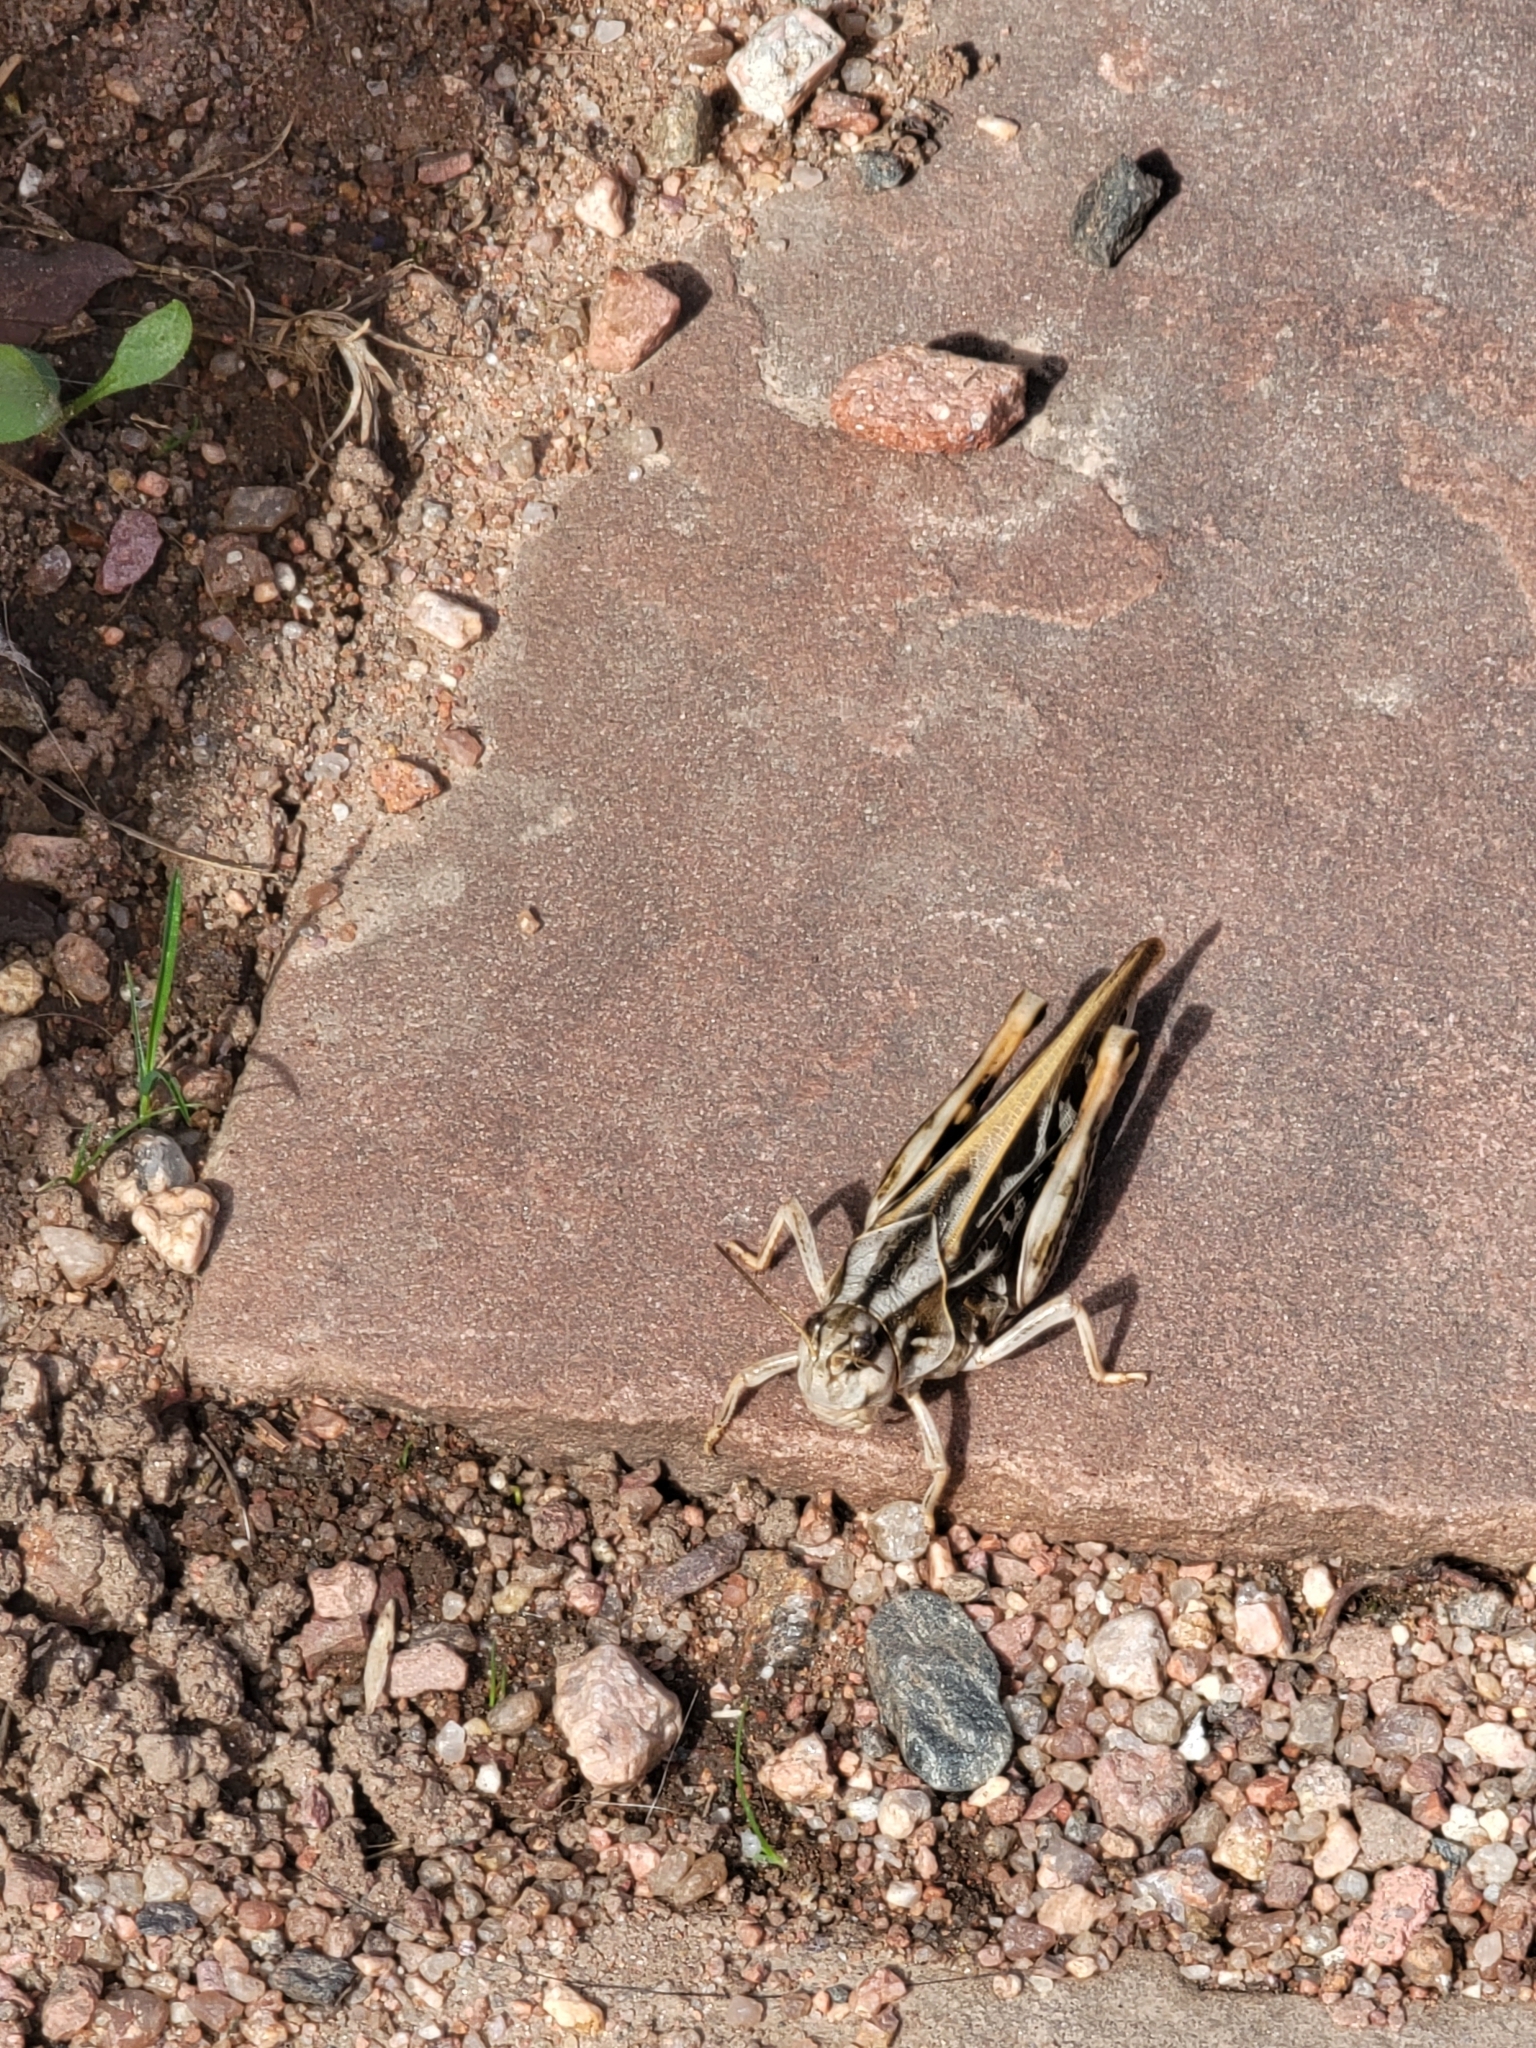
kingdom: Animalia
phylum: Arthropoda
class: Insecta
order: Orthoptera
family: Acrididae
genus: Pardalophora
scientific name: Pardalophora apiculata
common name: Coral-winged locust
